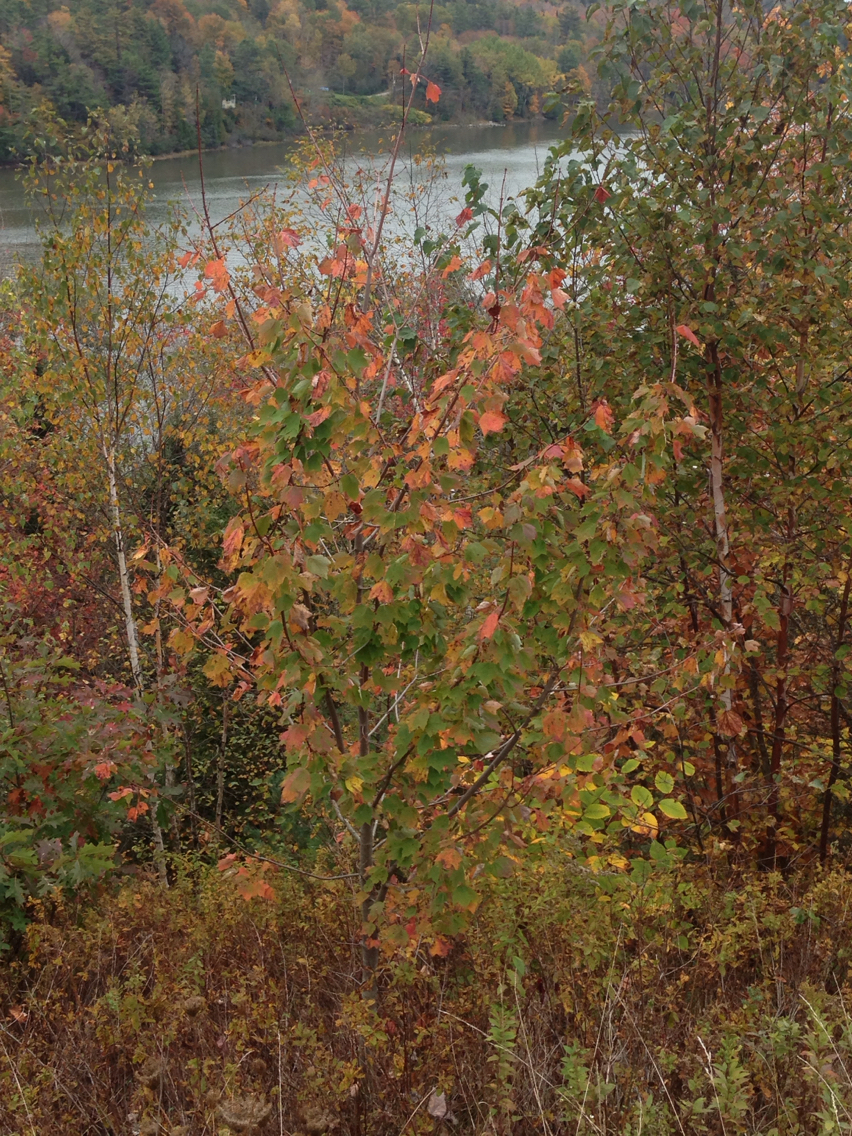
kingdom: Plantae
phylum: Tracheophyta
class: Magnoliopsida
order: Sapindales
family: Sapindaceae
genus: Acer
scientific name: Acer rubrum
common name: Red maple
